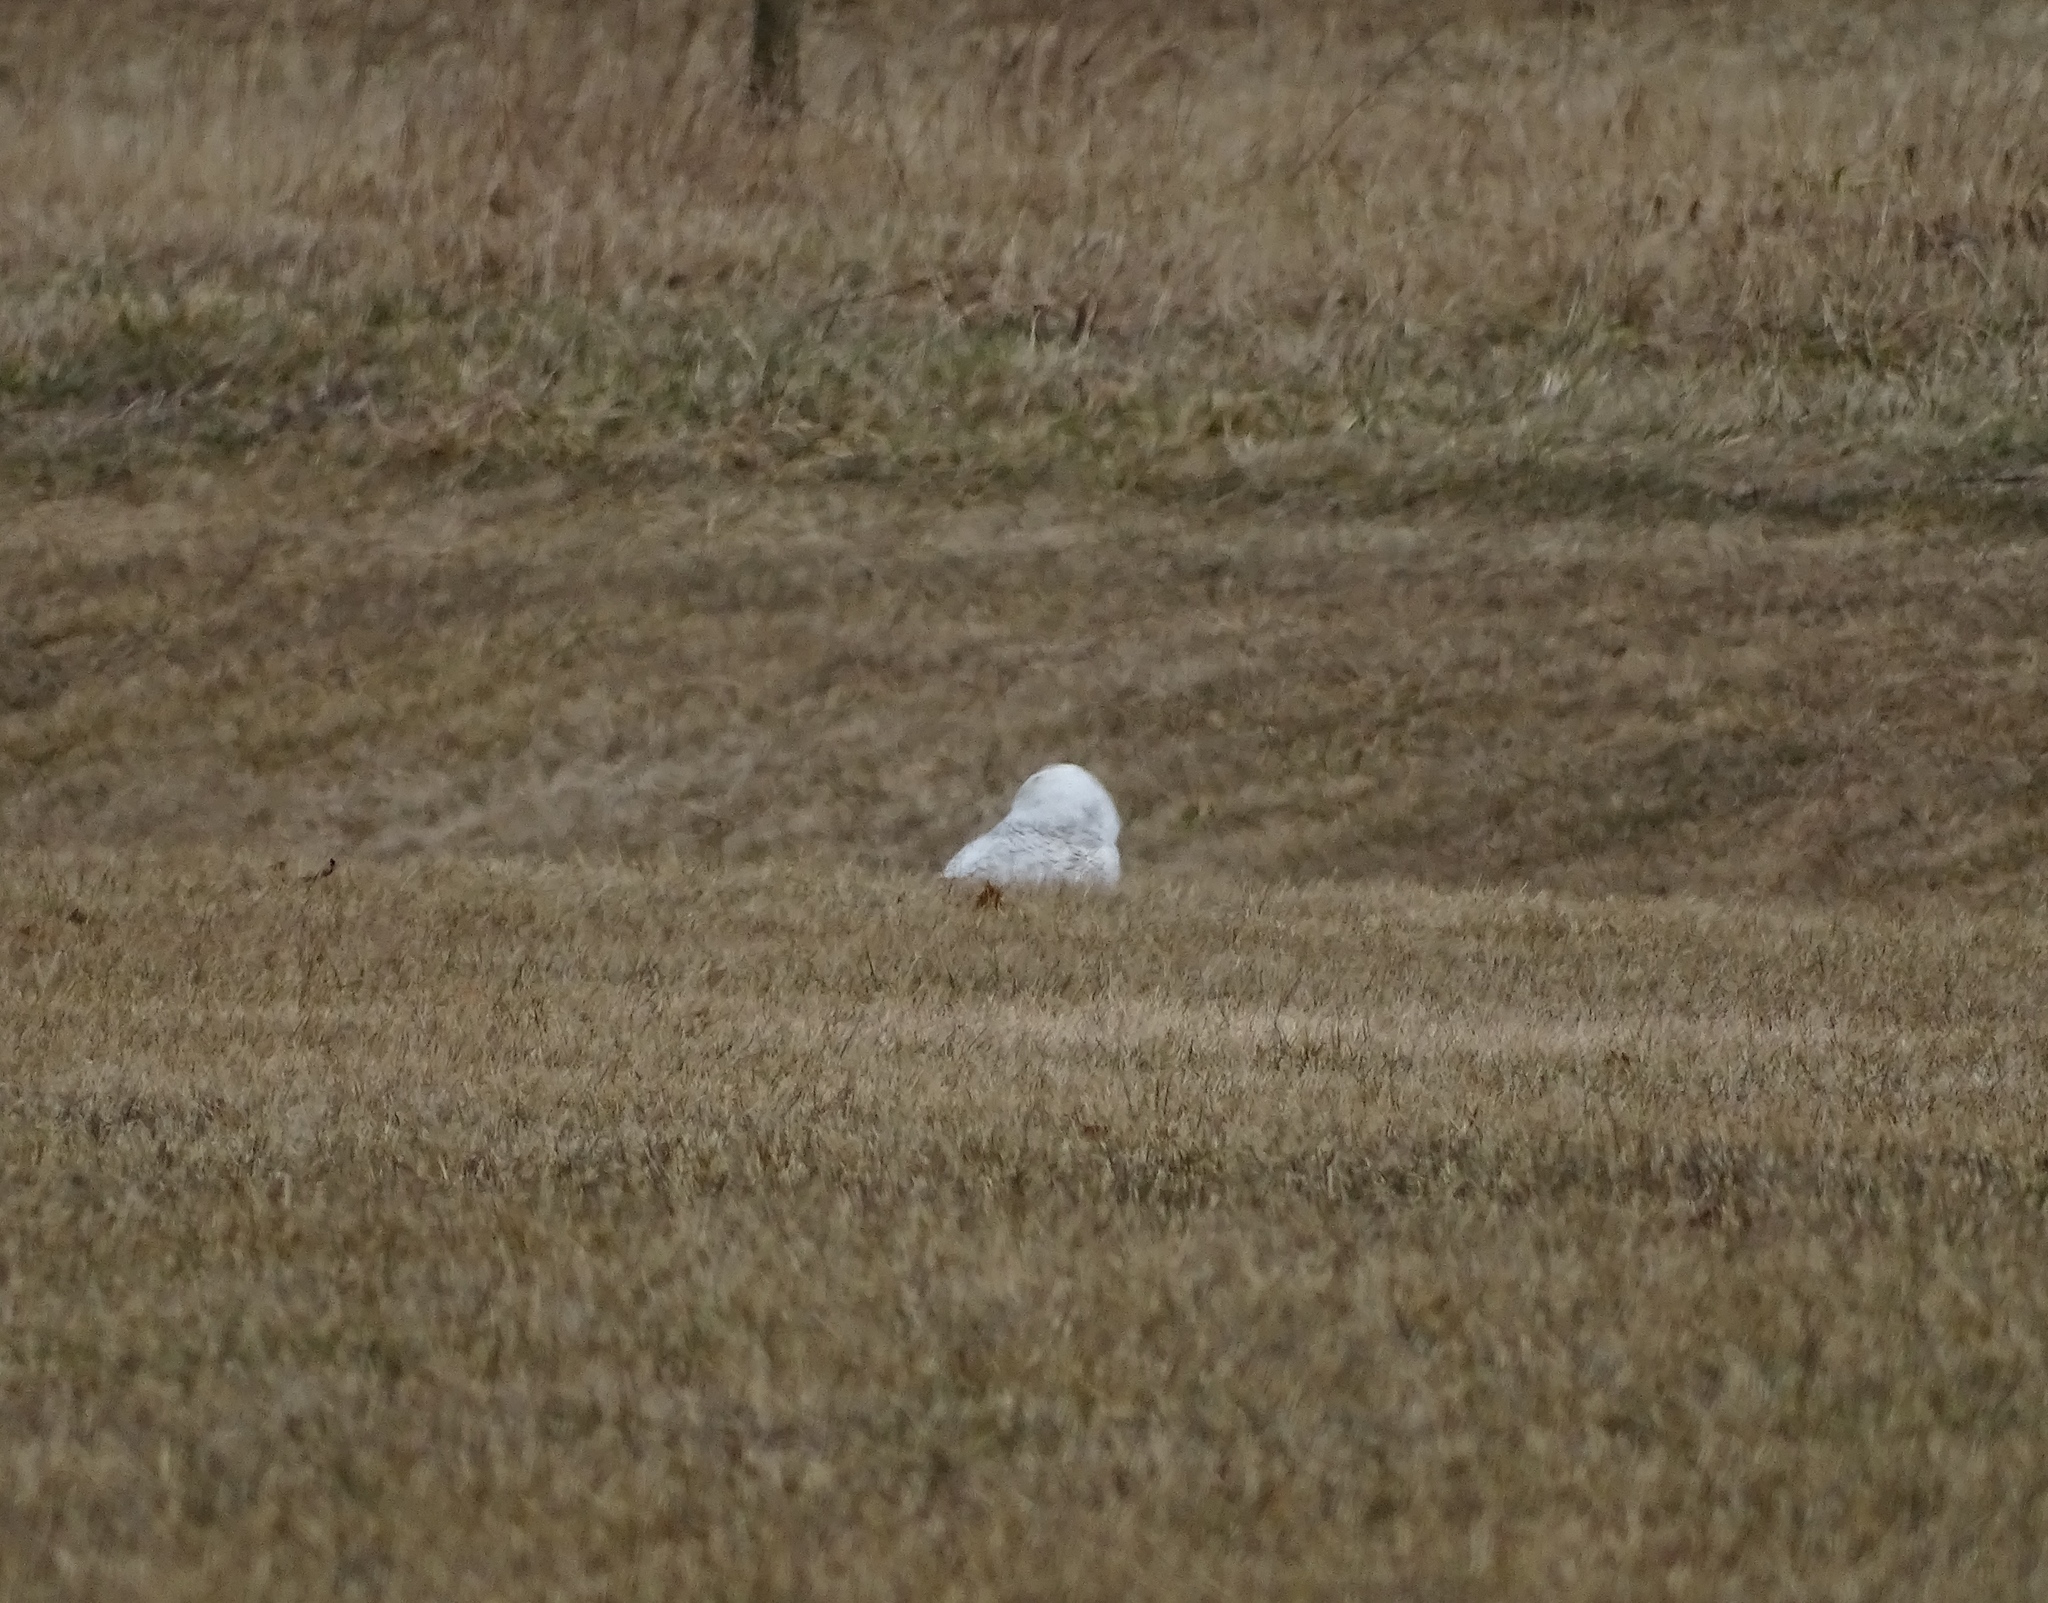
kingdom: Animalia
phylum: Chordata
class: Aves
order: Strigiformes
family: Strigidae
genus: Bubo
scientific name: Bubo scandiacus
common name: Snowy owl
